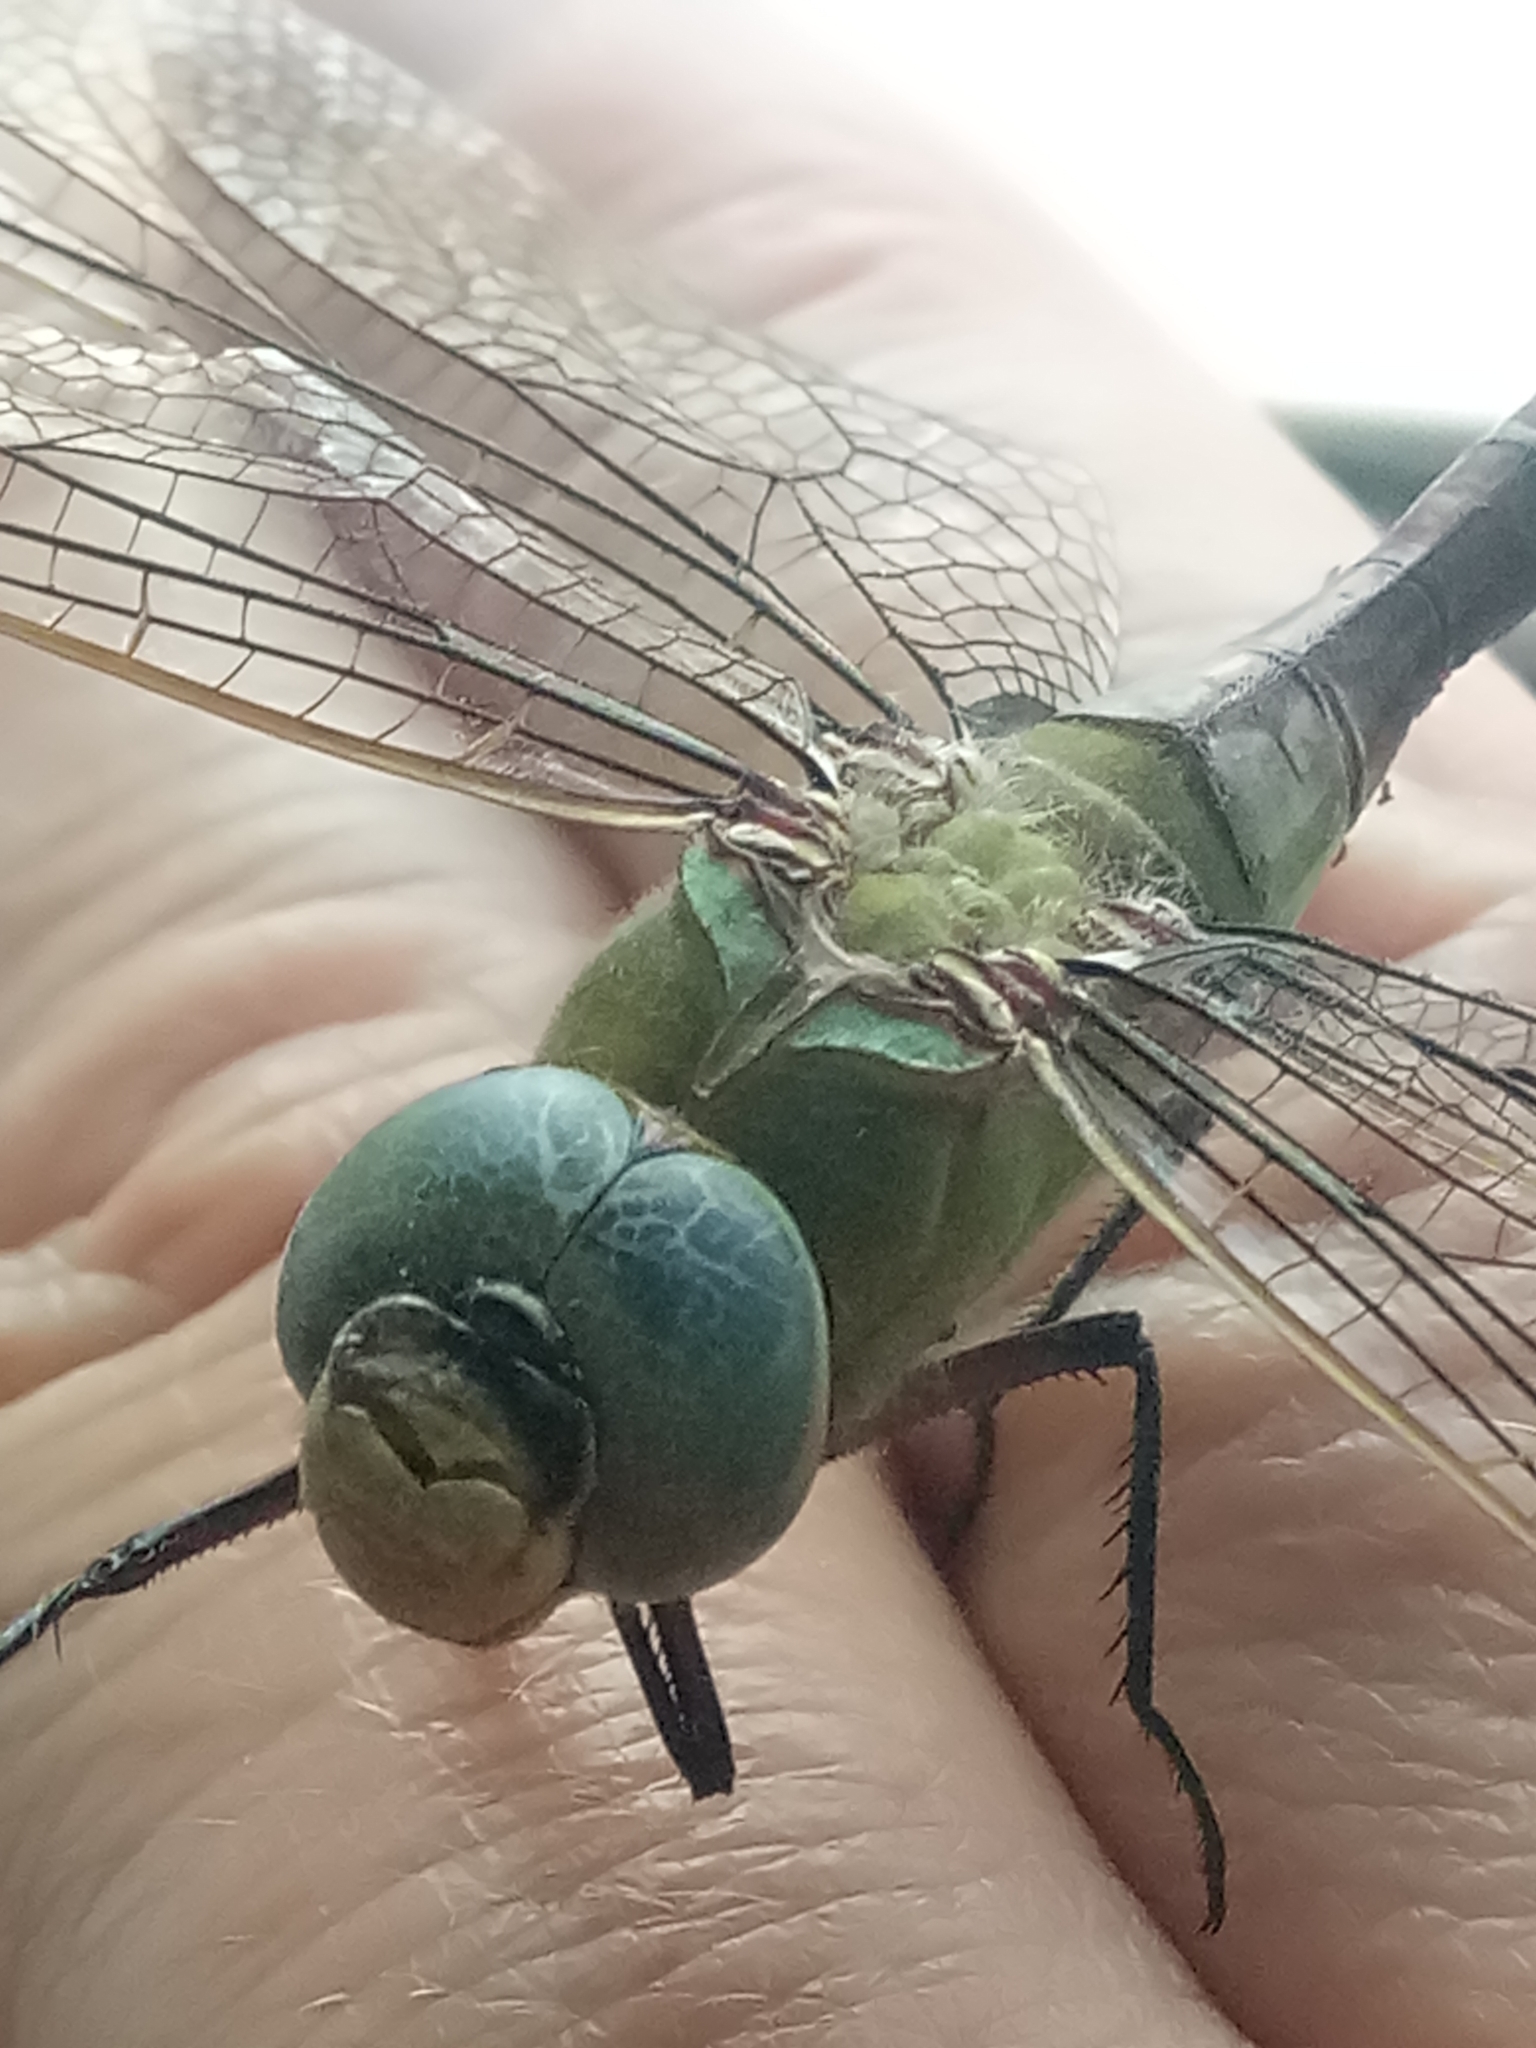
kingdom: Animalia
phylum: Arthropoda
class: Insecta
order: Odonata
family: Aeshnidae
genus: Anax
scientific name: Anax parthenope
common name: Lesser emperor
